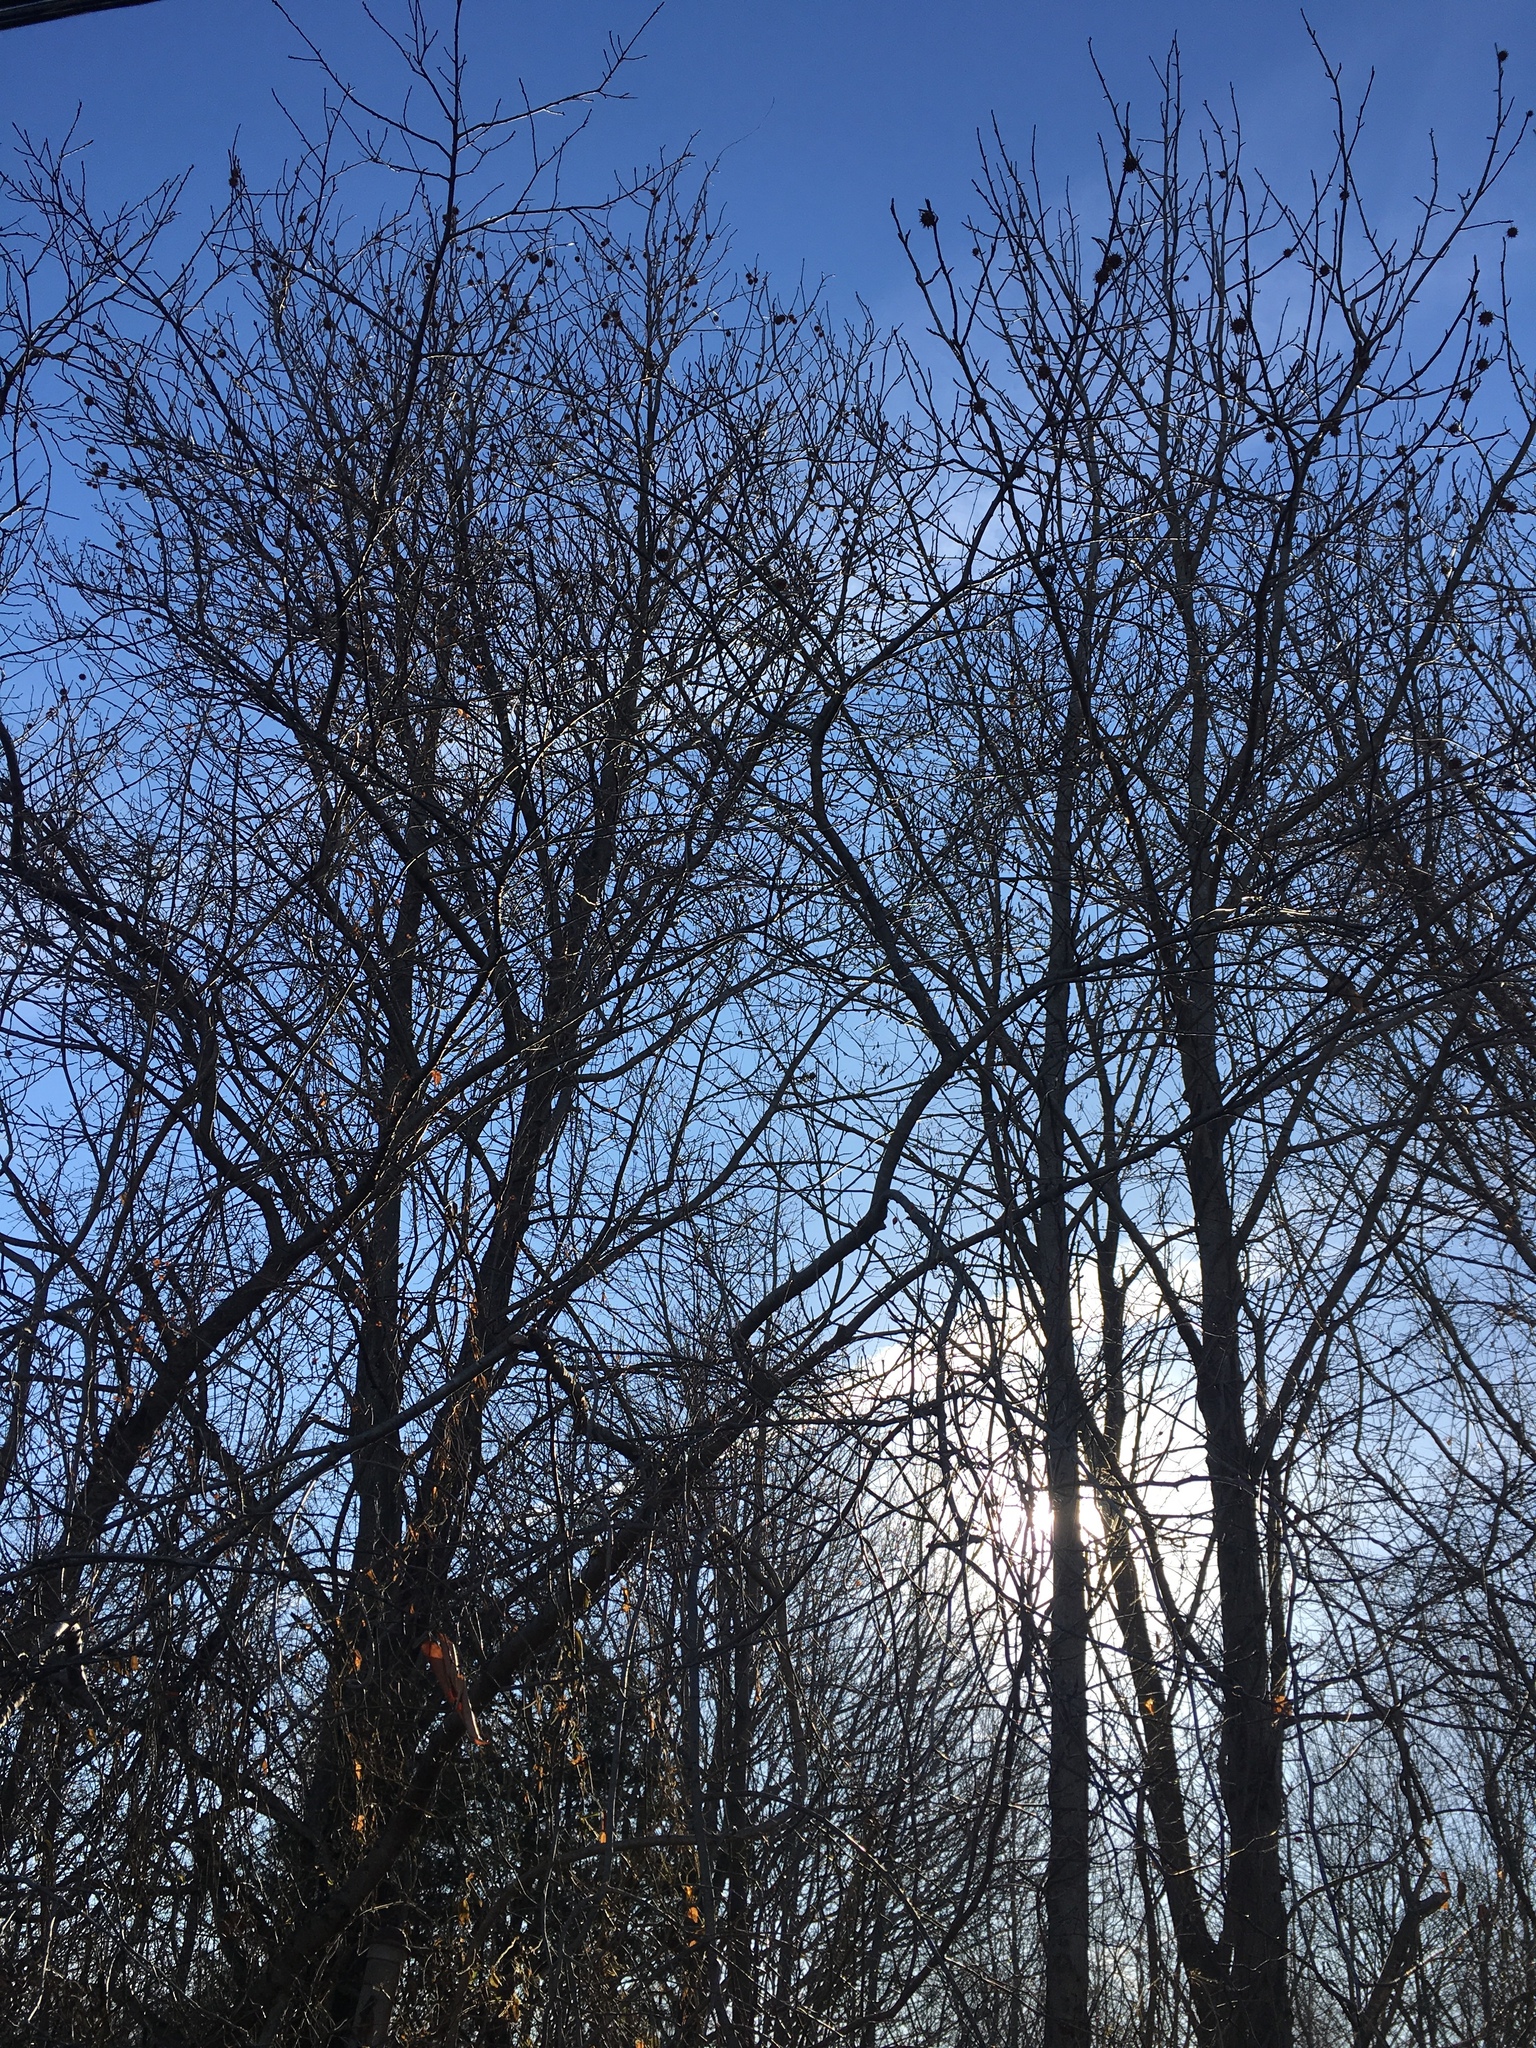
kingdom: Plantae
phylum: Tracheophyta
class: Magnoliopsida
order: Saxifragales
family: Altingiaceae
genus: Liquidambar
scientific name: Liquidambar styraciflua
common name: Sweet gum
